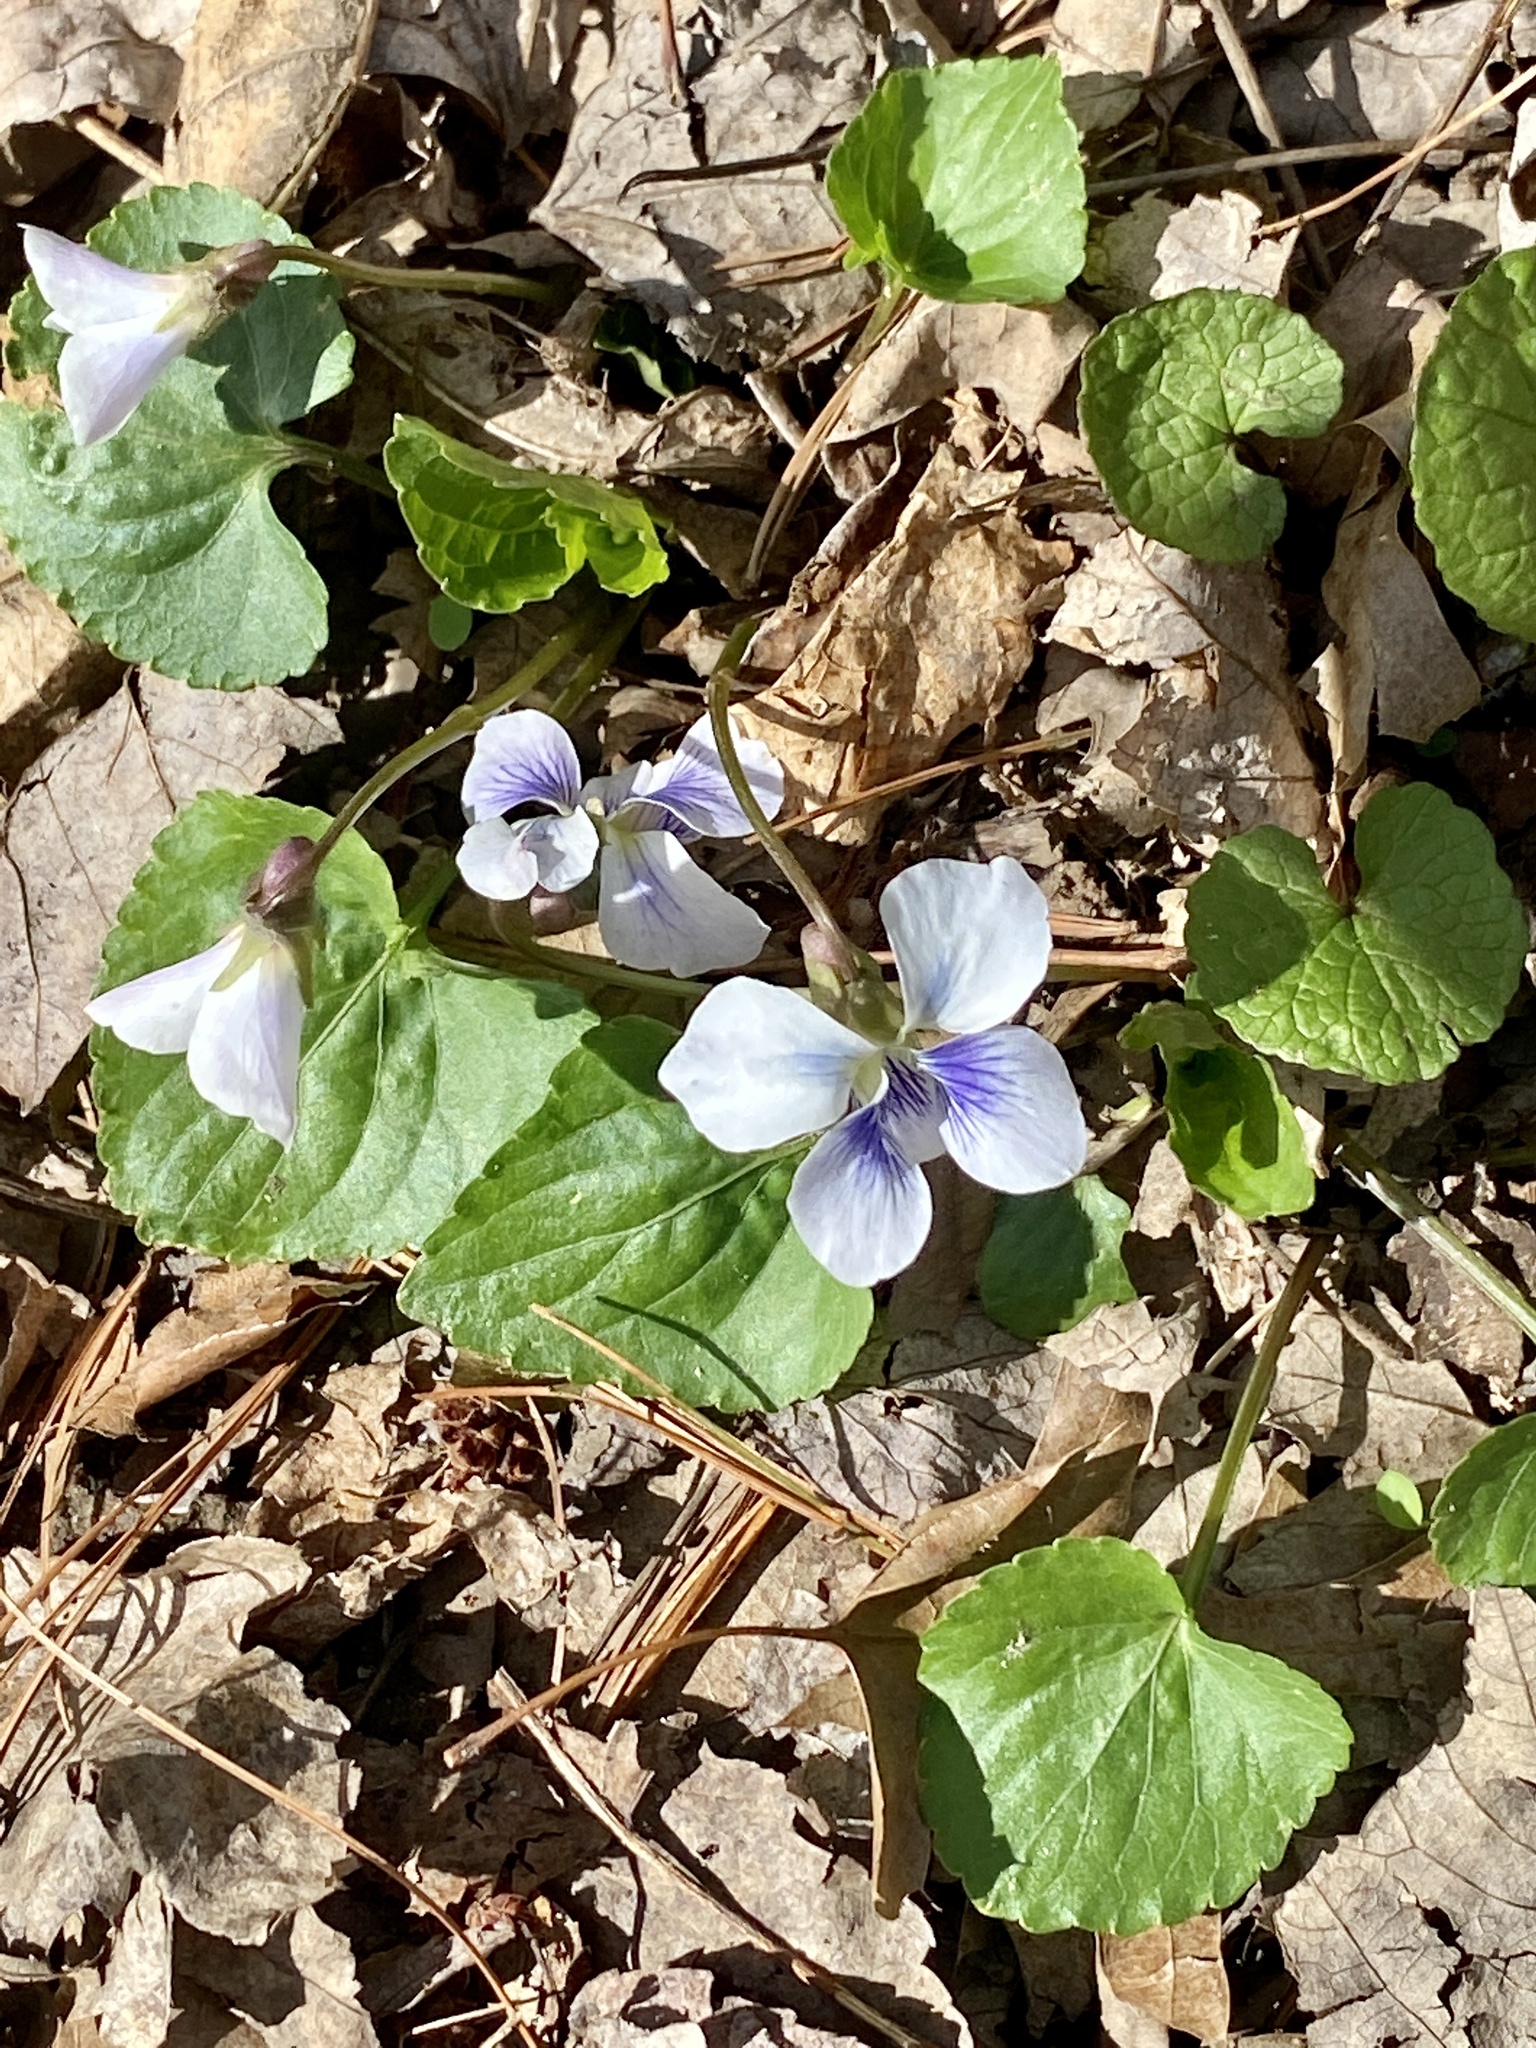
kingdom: Plantae
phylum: Tracheophyta
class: Magnoliopsida
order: Malpighiales
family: Violaceae
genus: Viola
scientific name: Viola sororia
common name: Dooryard violet
